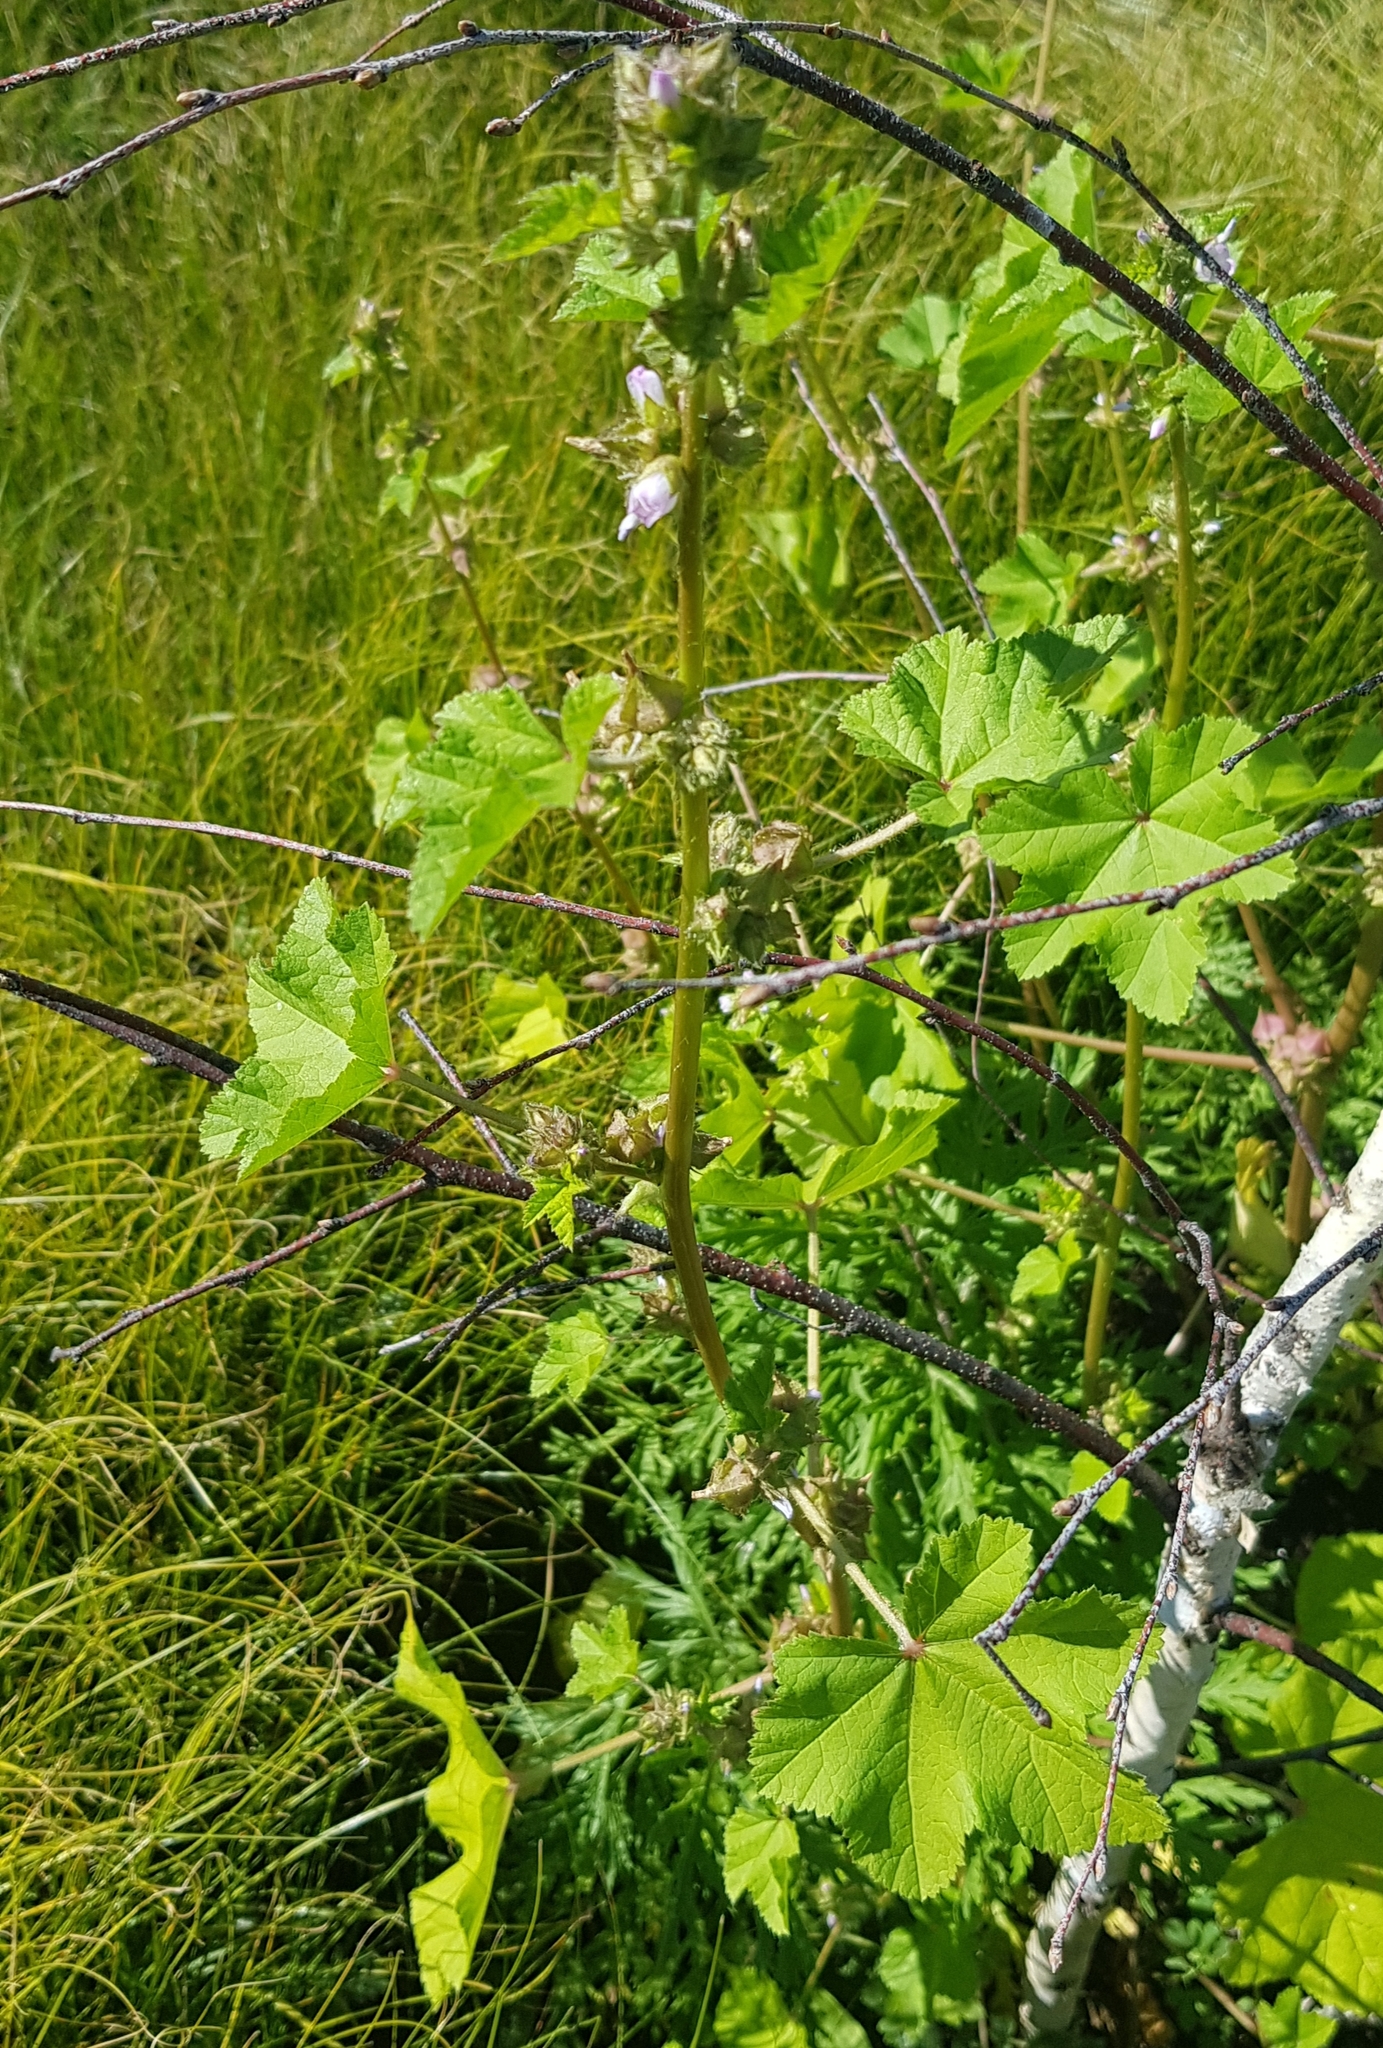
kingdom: Plantae
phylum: Tracheophyta
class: Magnoliopsida
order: Malvales
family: Malvaceae
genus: Malva
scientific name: Malva verticillata
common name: Chinese mallow
